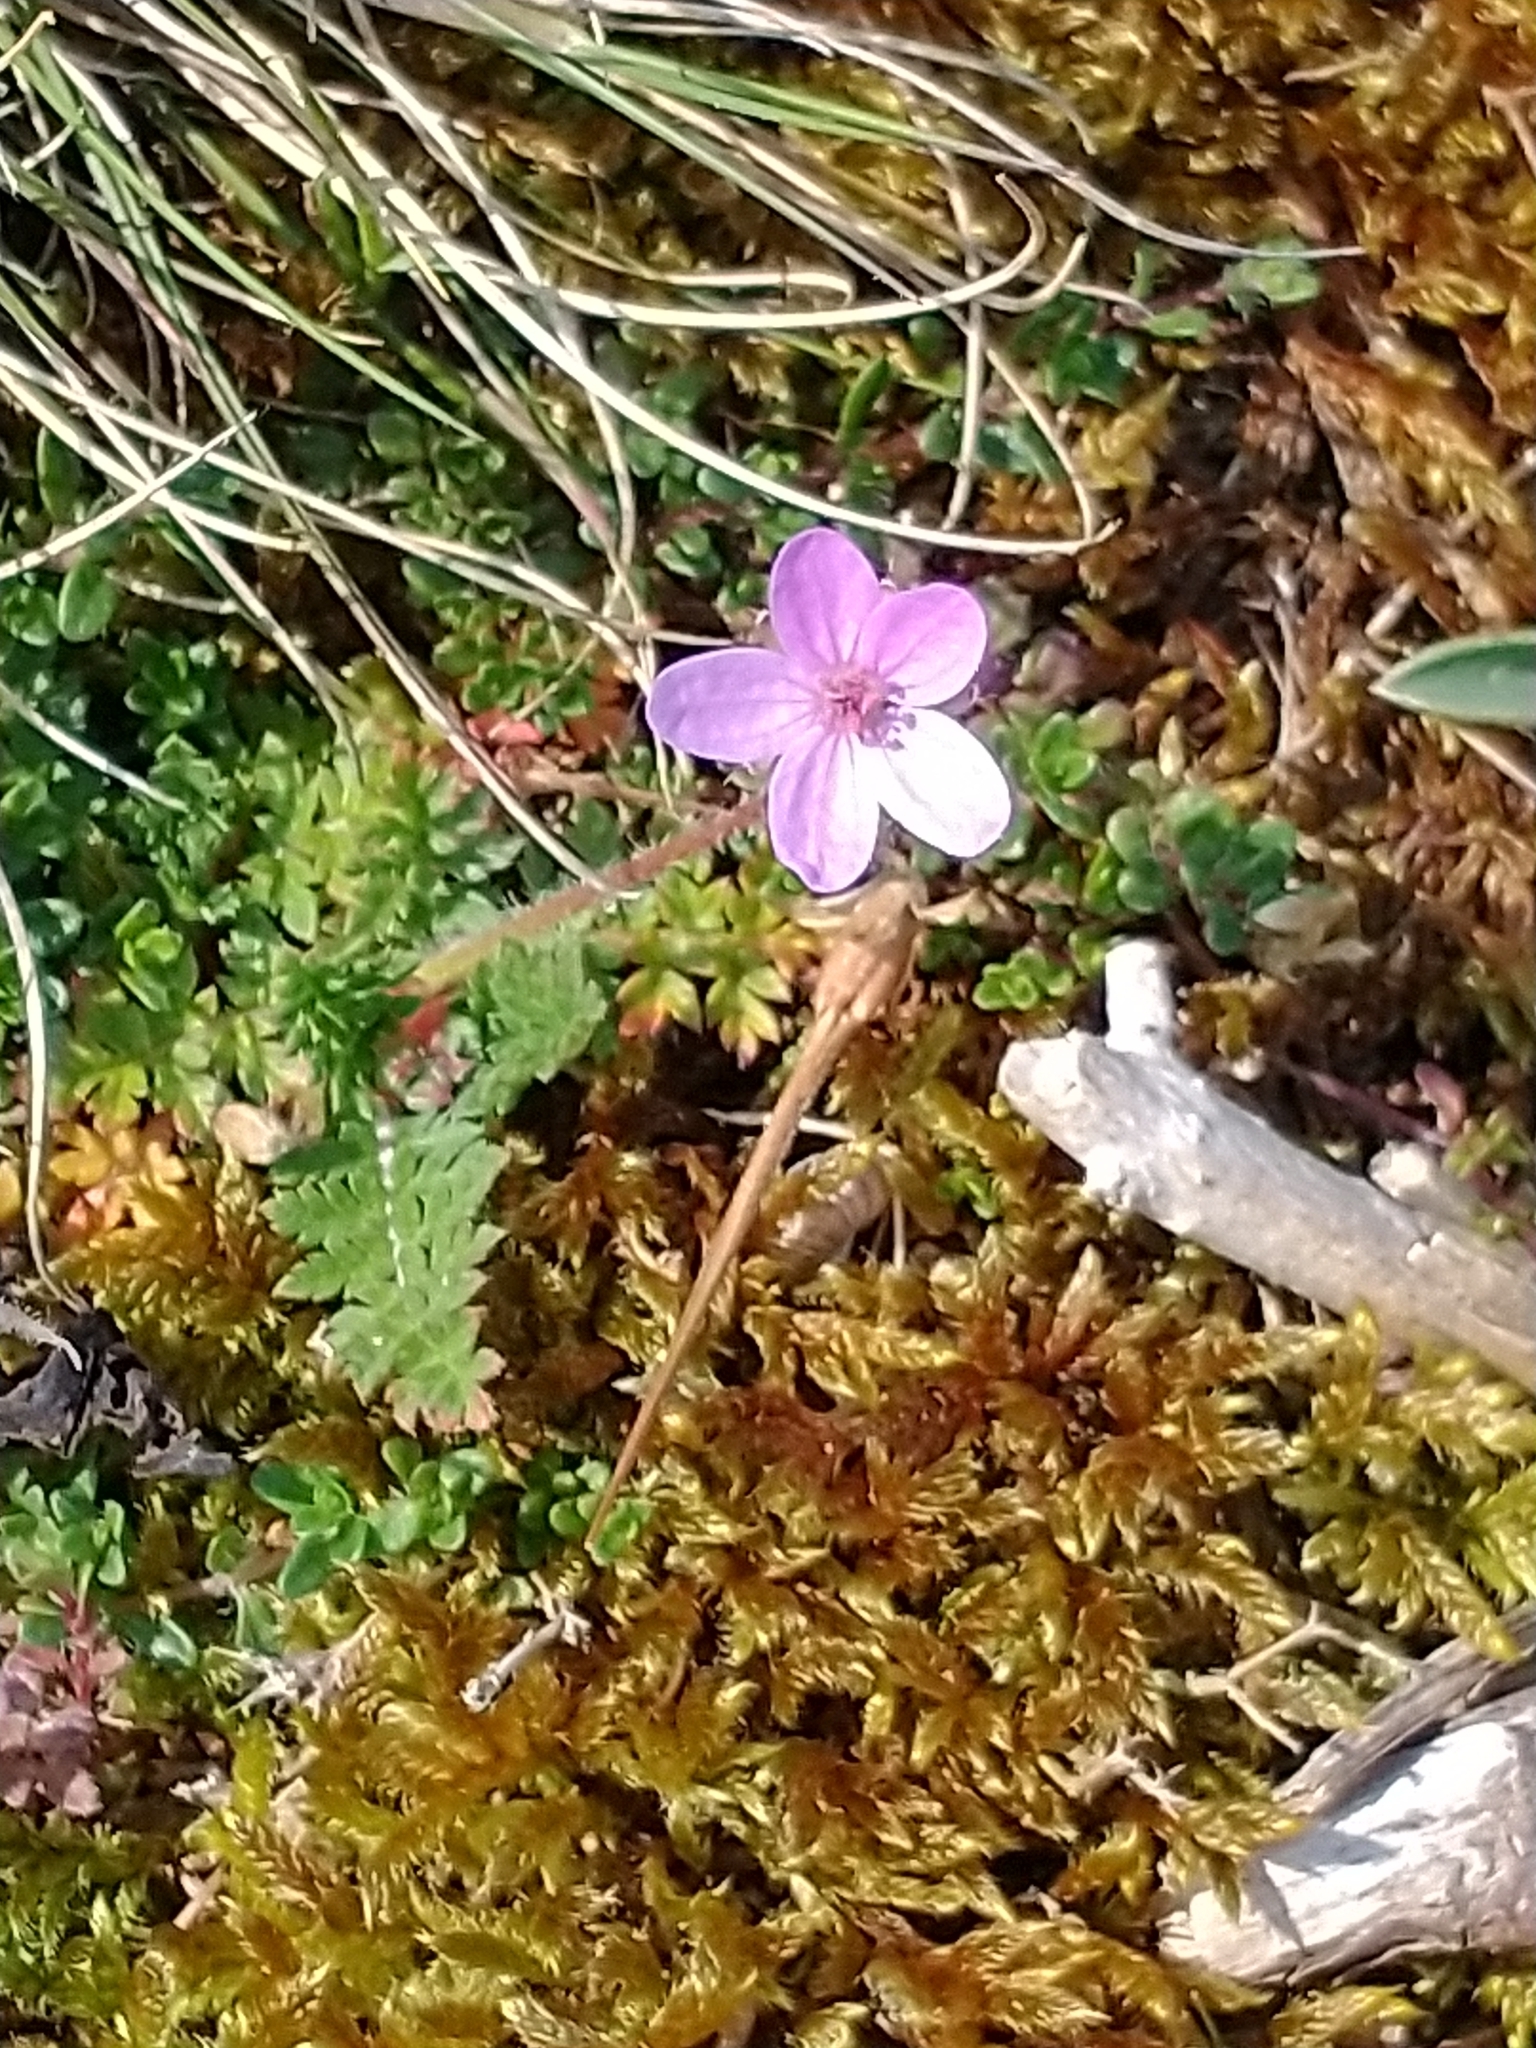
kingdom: Plantae
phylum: Tracheophyta
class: Magnoliopsida
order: Geraniales
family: Geraniaceae
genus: Erodium
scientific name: Erodium cicutarium
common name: Common stork's-bill
